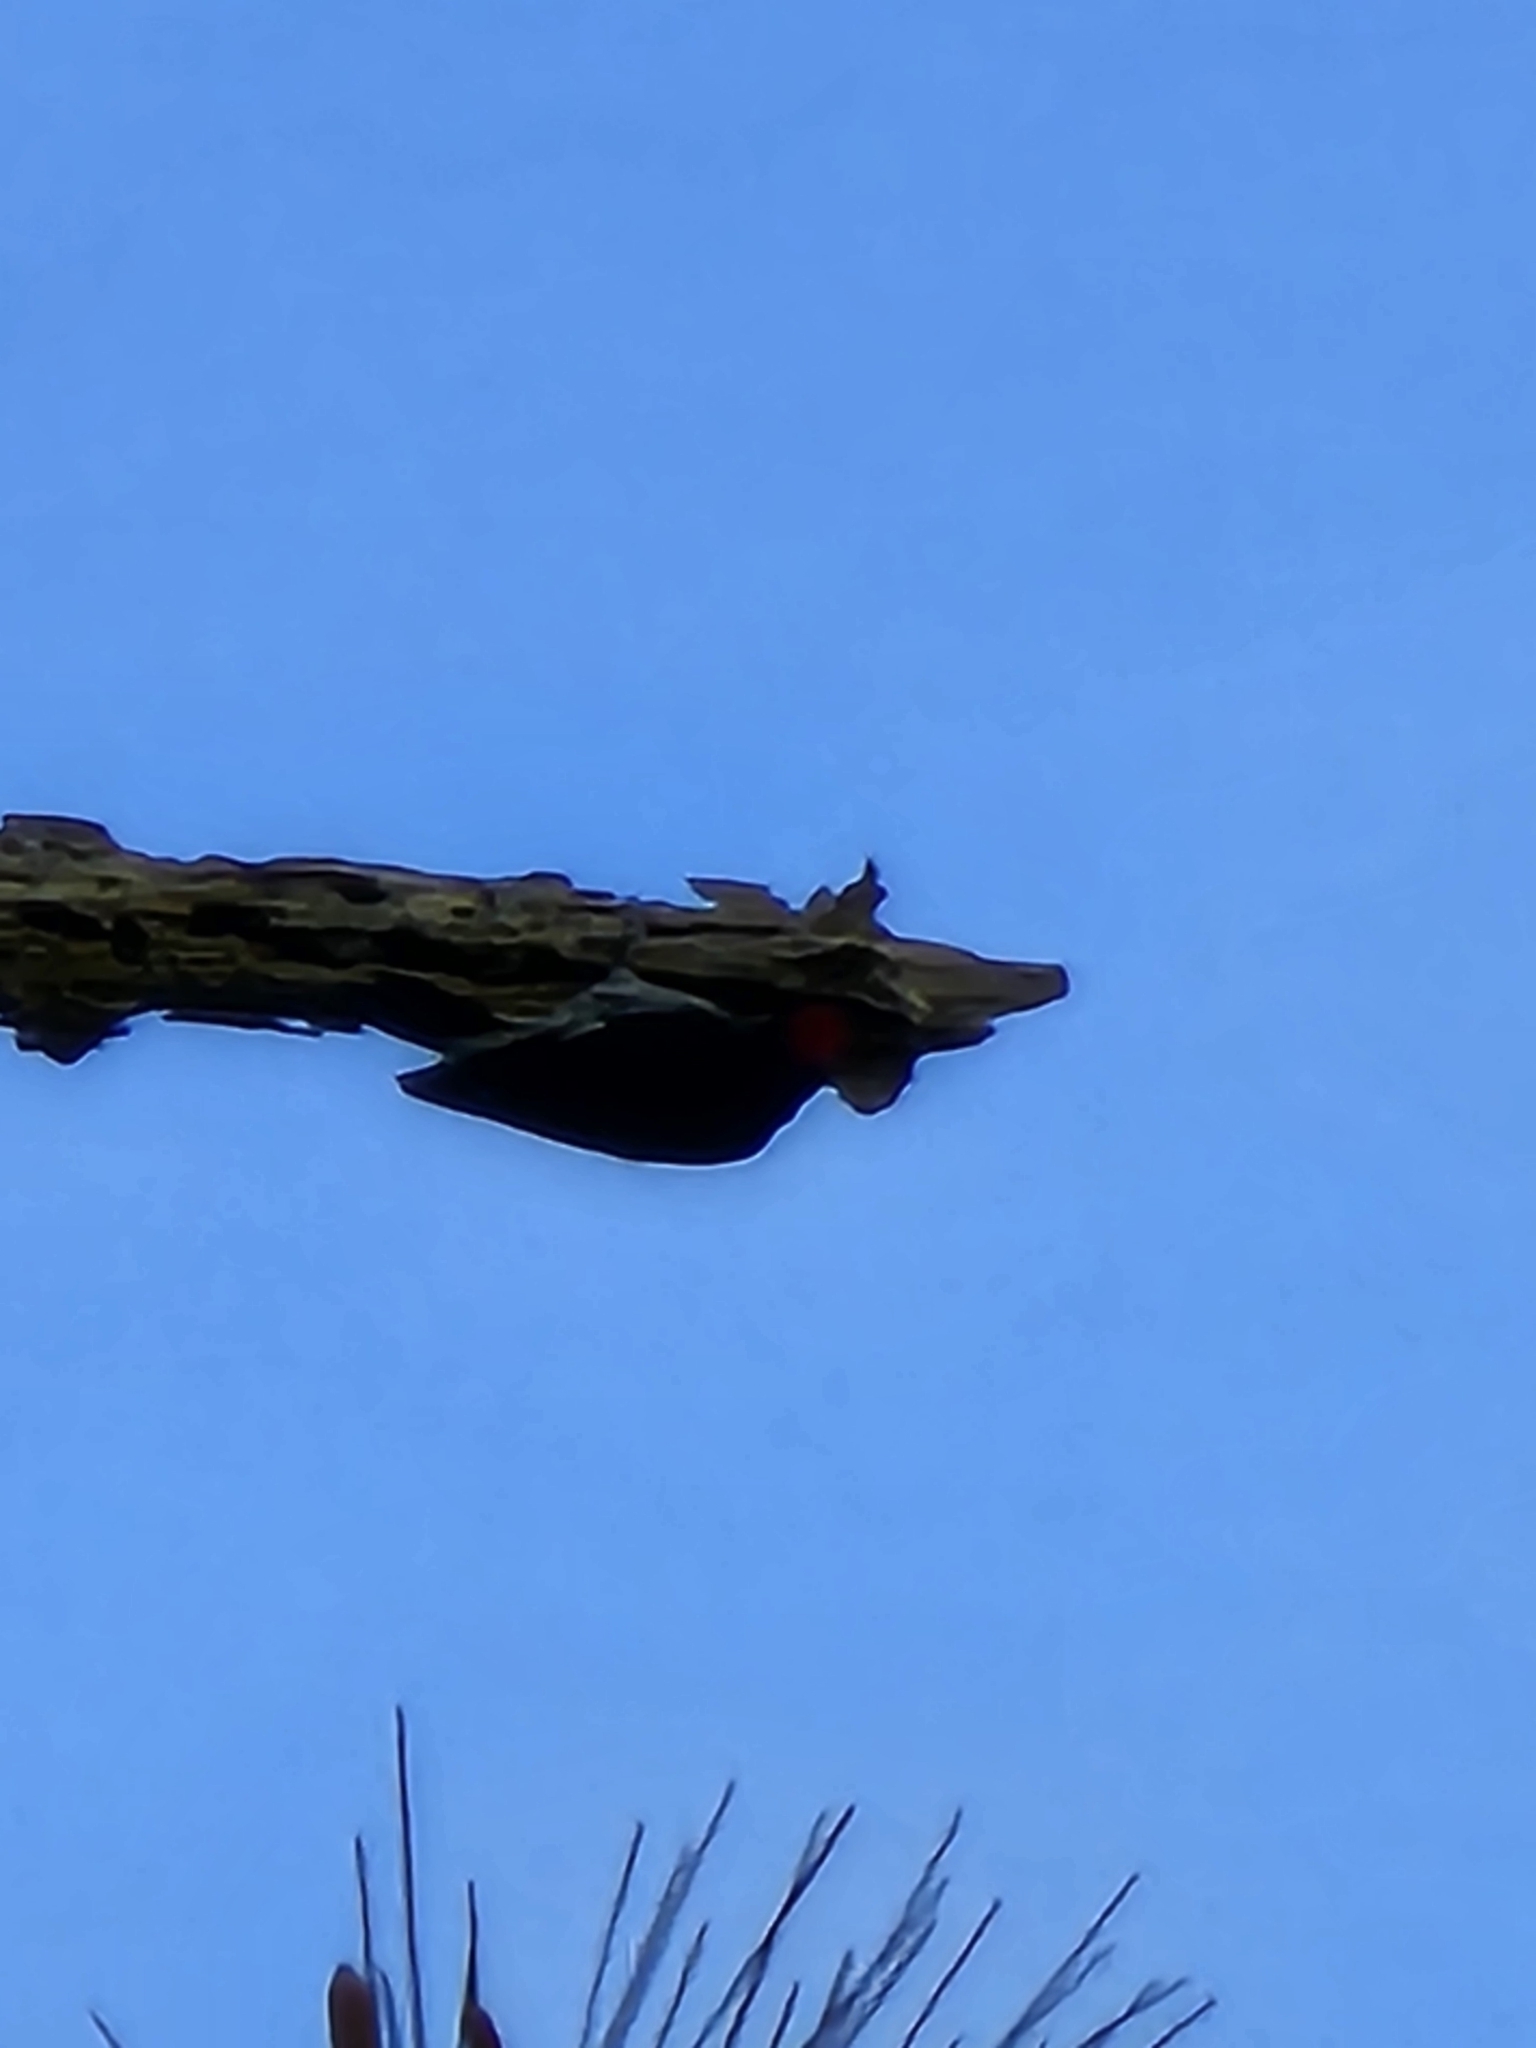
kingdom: Animalia
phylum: Chordata
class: Aves
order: Piciformes
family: Picidae
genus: Melanerpes
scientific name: Melanerpes formicivorus
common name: Acorn woodpecker
